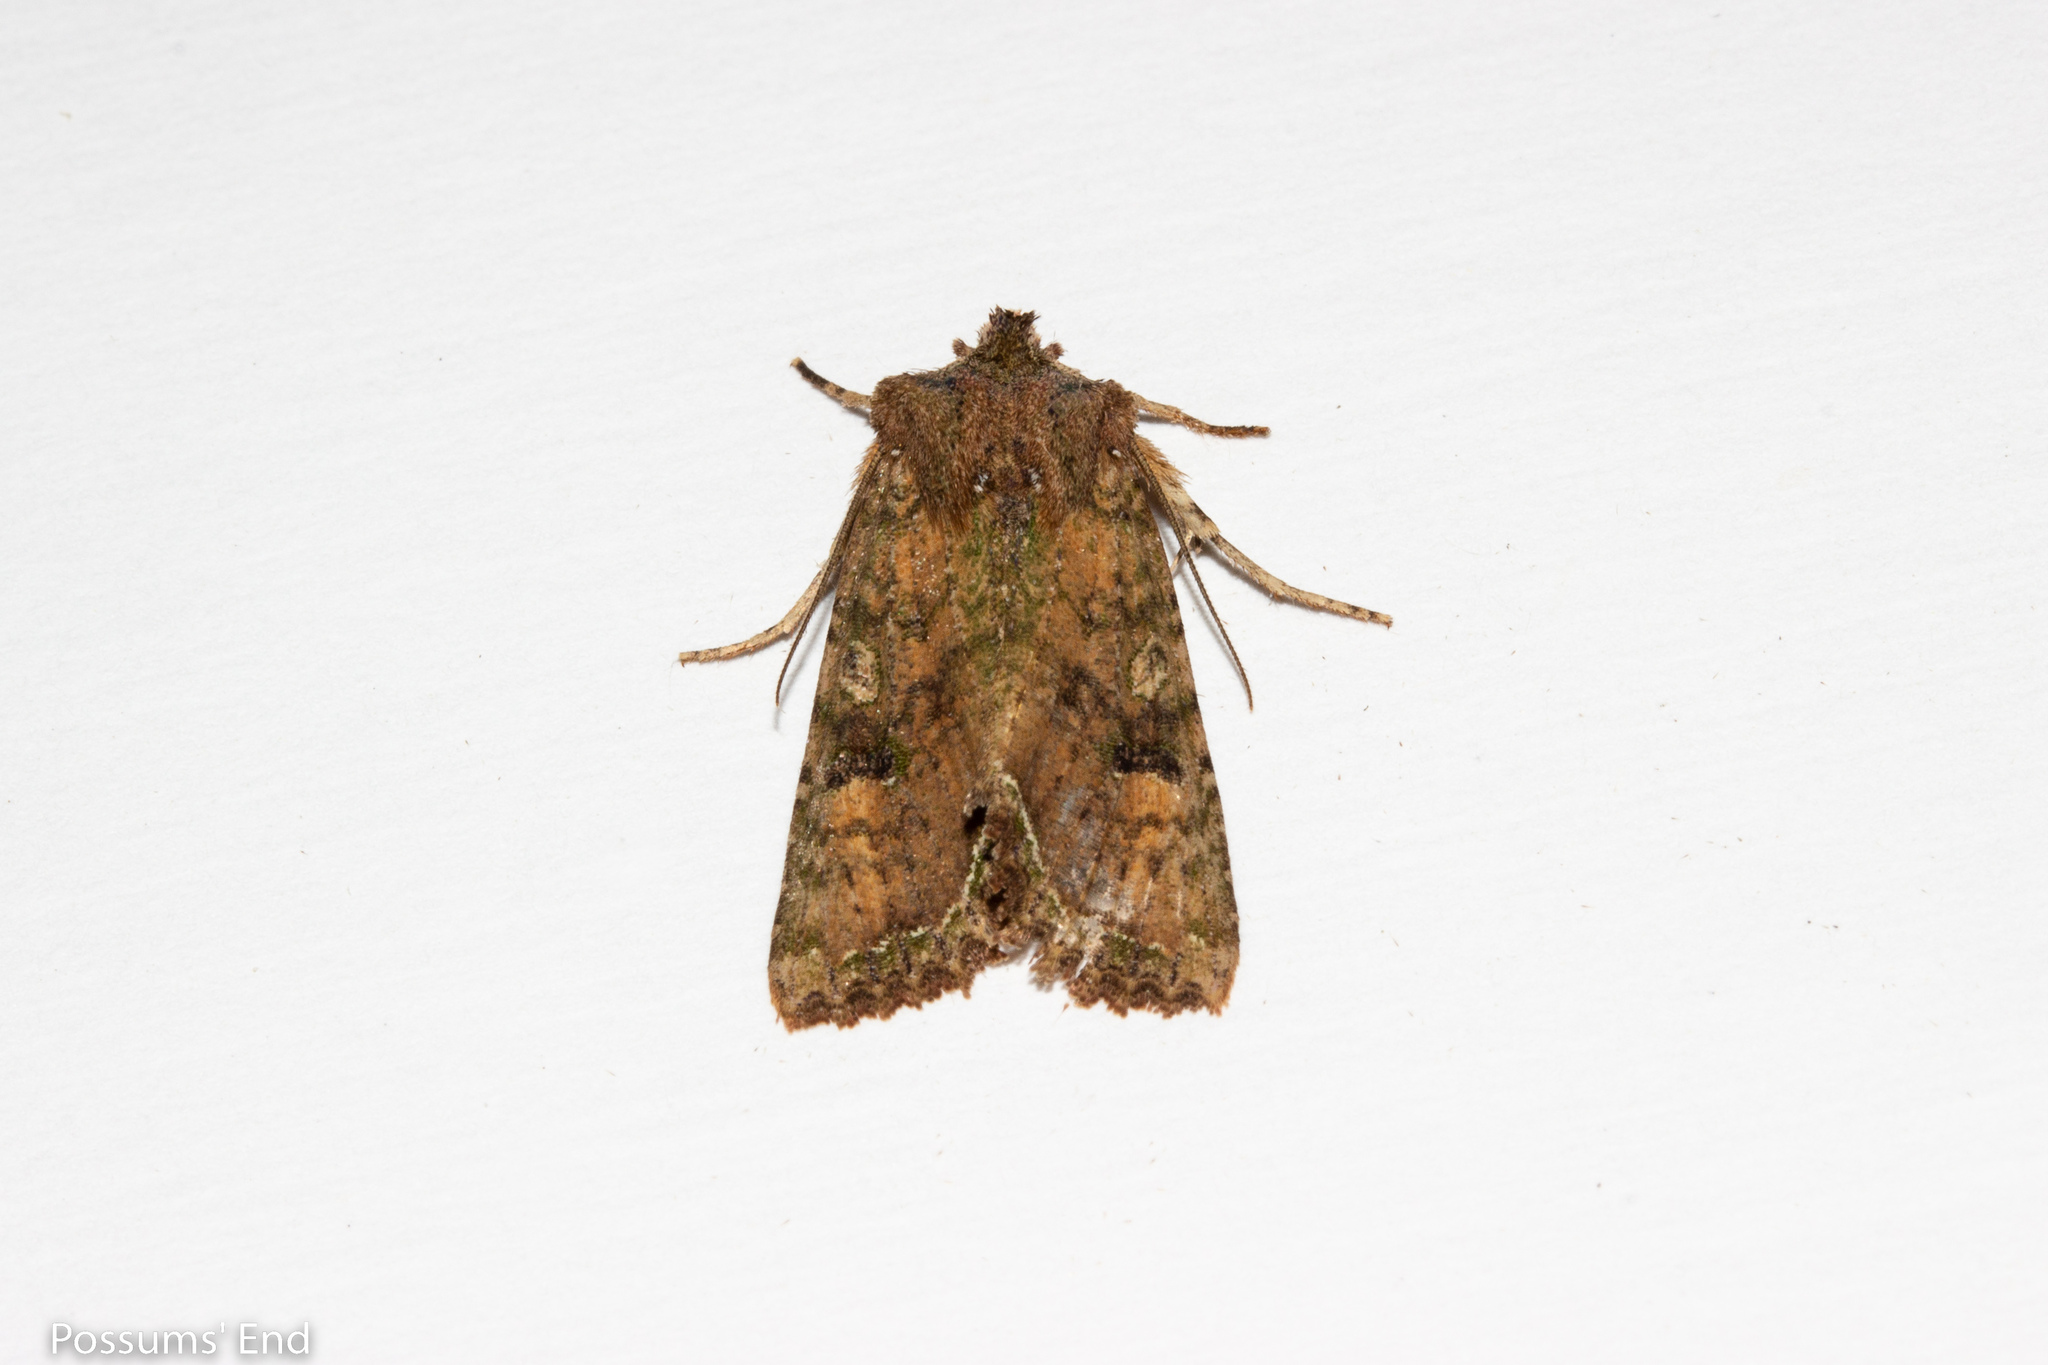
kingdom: Animalia
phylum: Arthropoda
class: Insecta
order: Lepidoptera
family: Noctuidae
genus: Meterana
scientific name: Meterana inchoata
